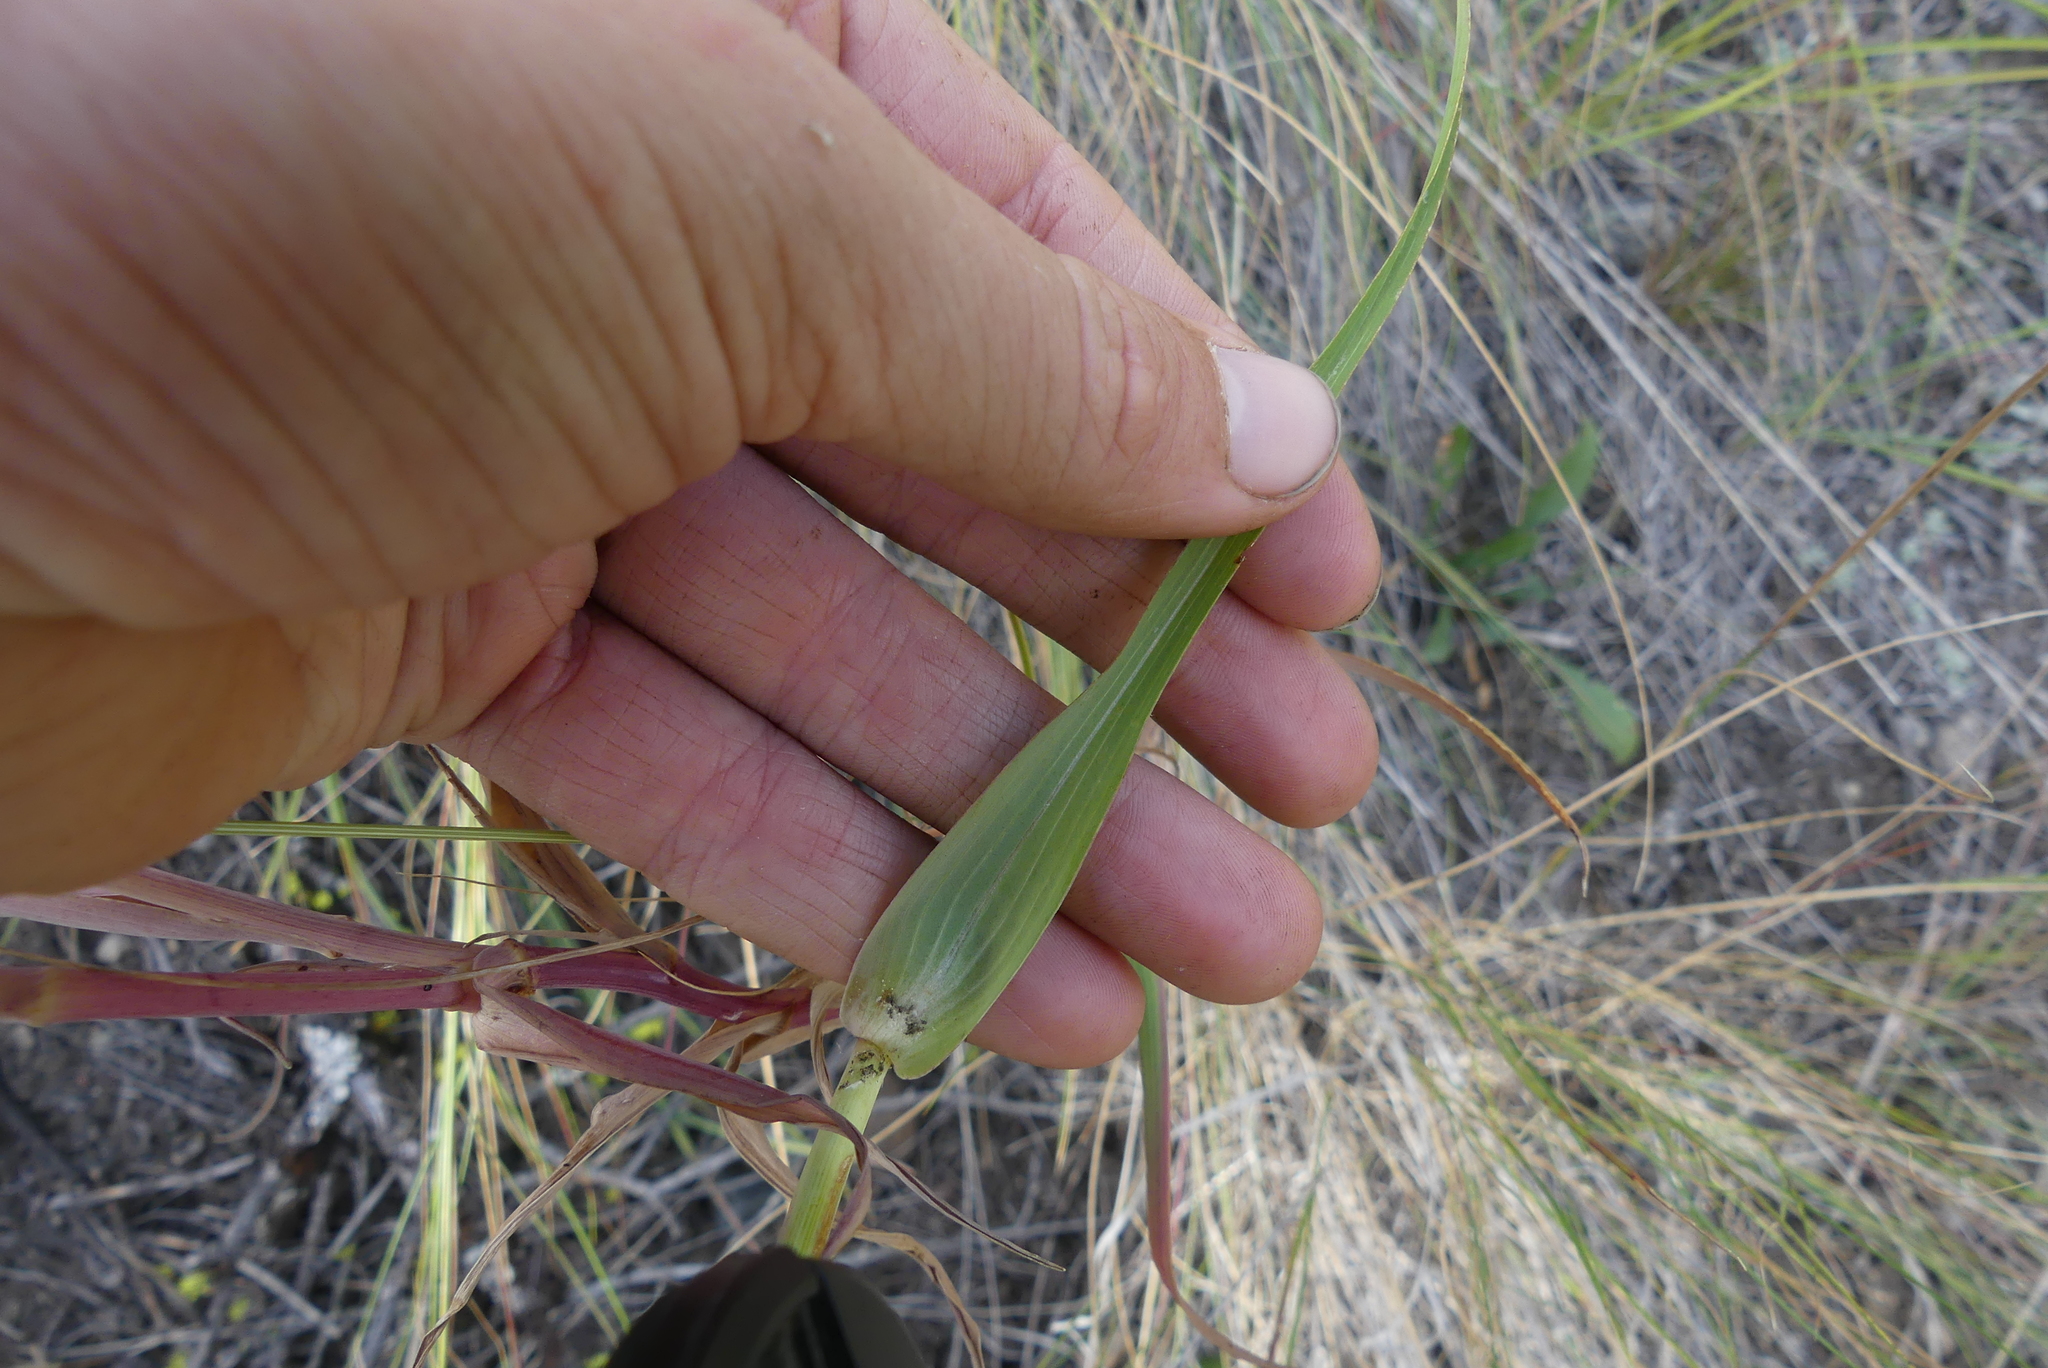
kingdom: Plantae
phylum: Tracheophyta
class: Magnoliopsida
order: Asterales
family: Asteraceae
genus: Tragopogon
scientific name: Tragopogon dubius
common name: Yellow salsify
